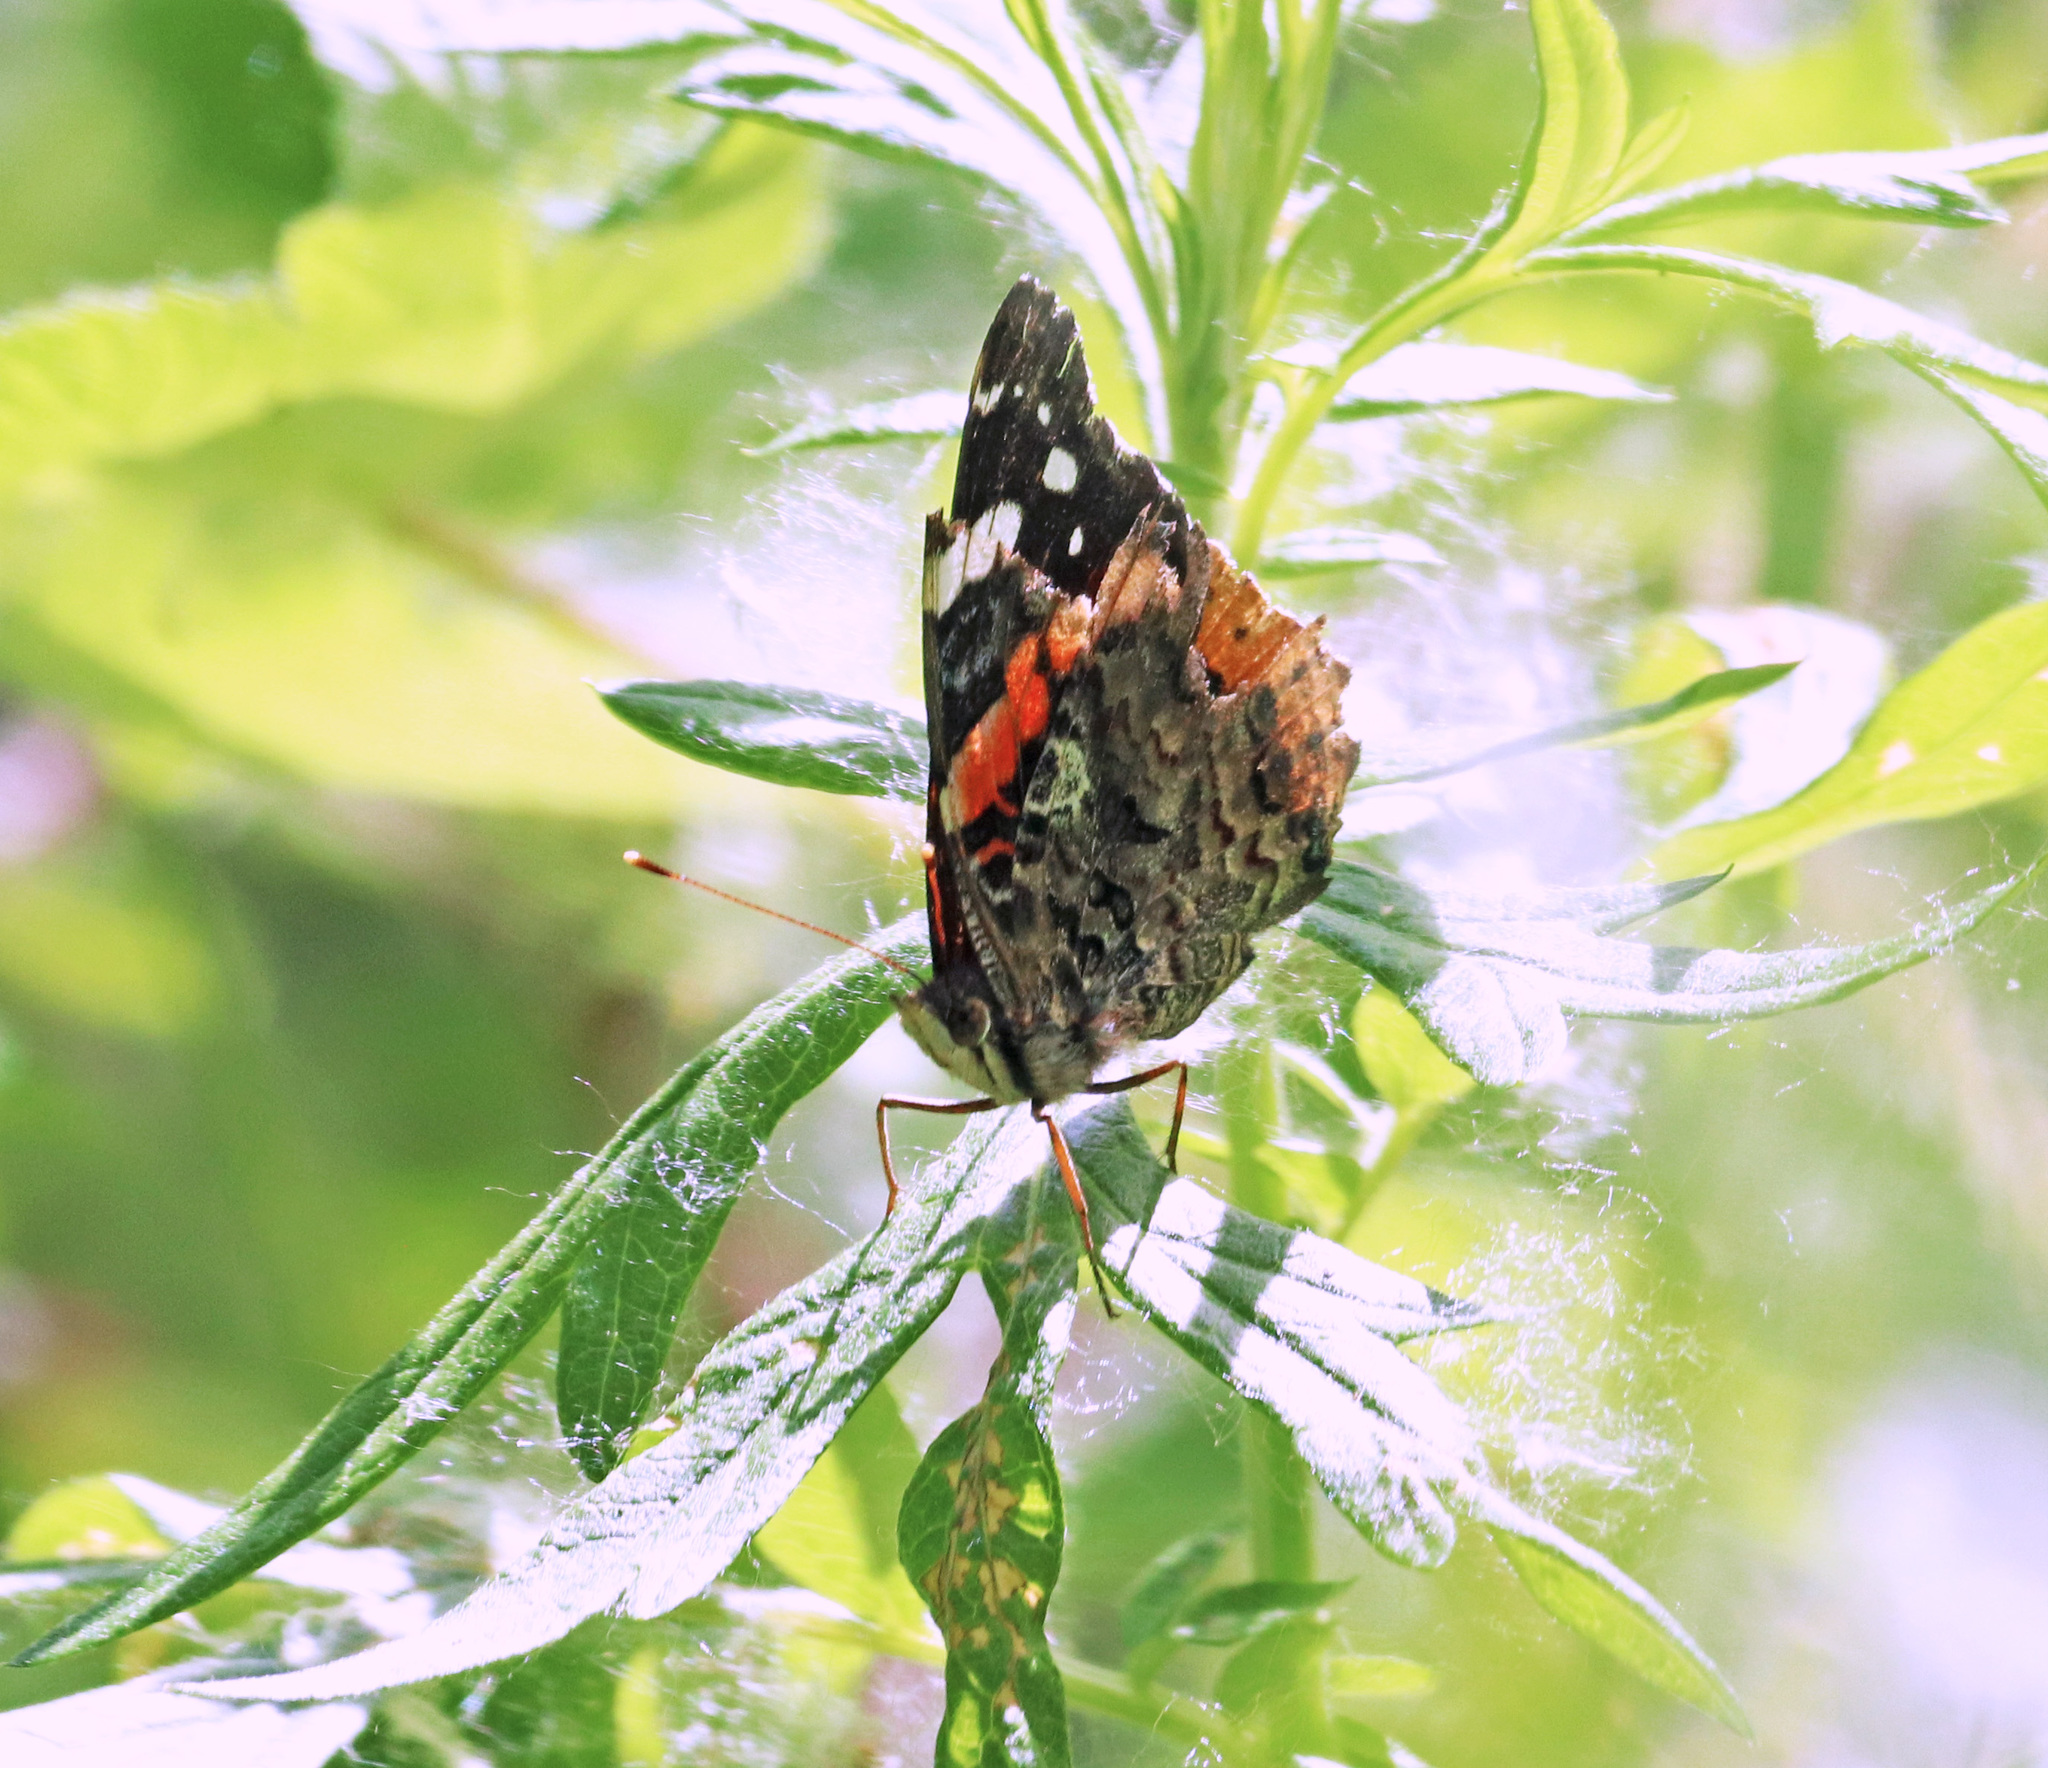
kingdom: Animalia
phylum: Arthropoda
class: Insecta
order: Lepidoptera
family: Nymphalidae
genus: Vanessa
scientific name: Vanessa atalanta
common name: Red admiral
